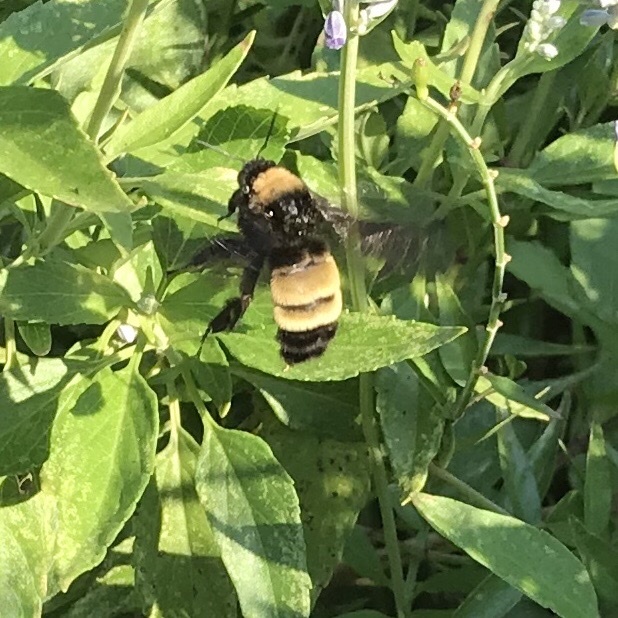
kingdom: Animalia
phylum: Arthropoda
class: Insecta
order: Hymenoptera
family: Apidae
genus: Bombus
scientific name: Bombus pensylvanicus
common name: Bumble bee
